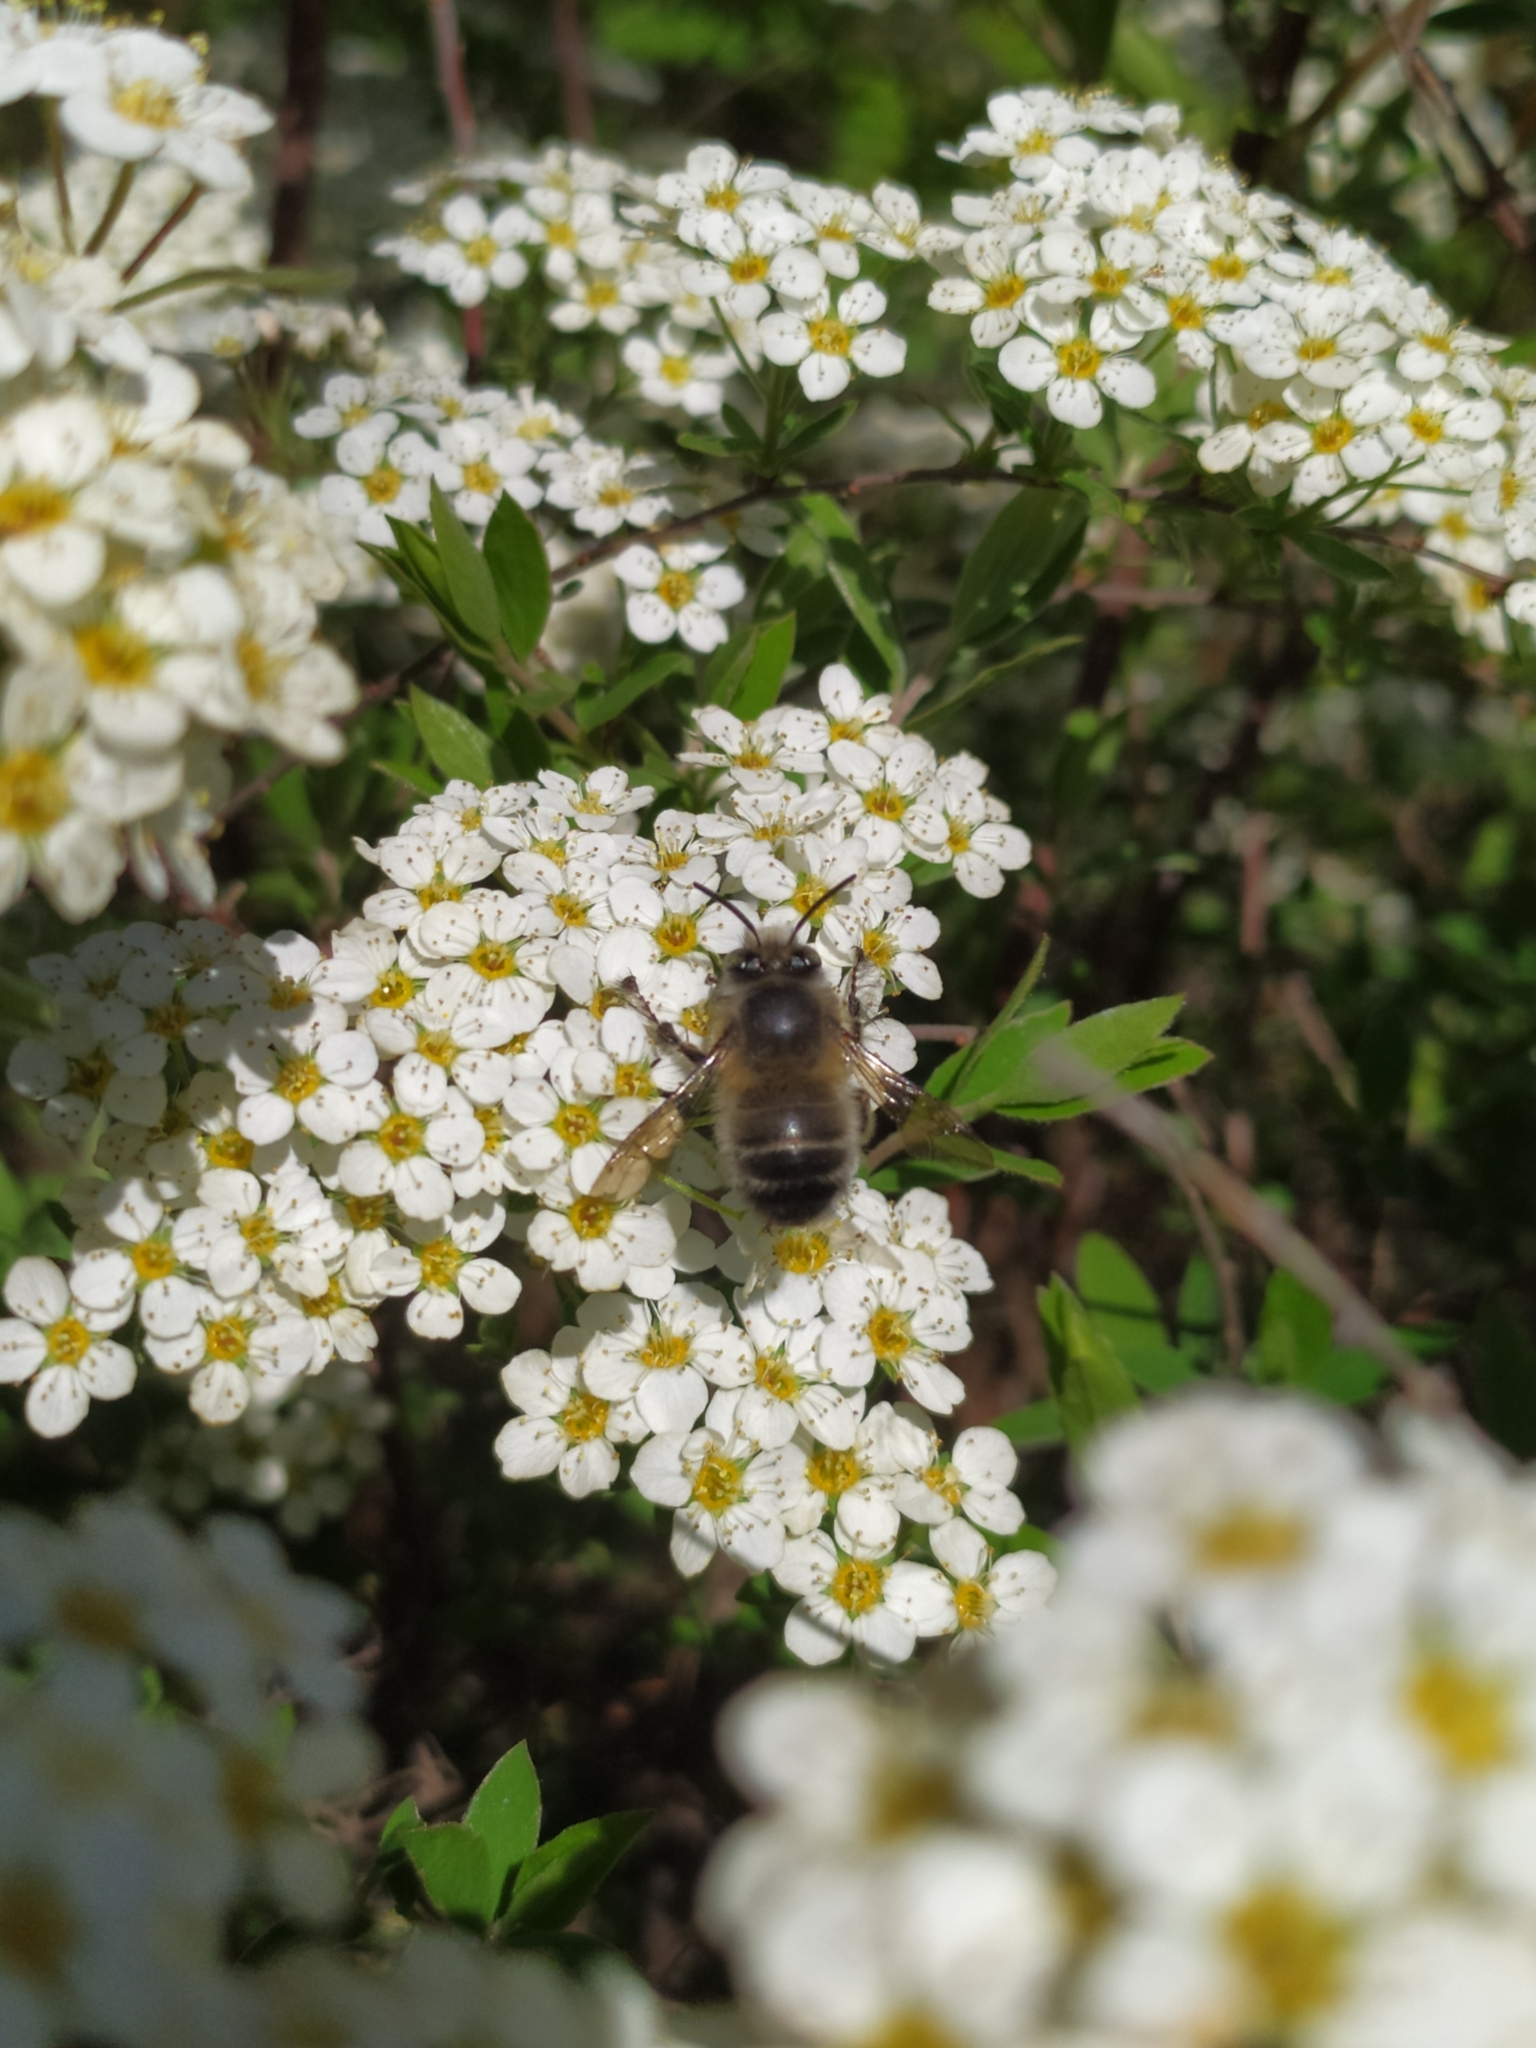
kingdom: Animalia
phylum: Arthropoda
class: Insecta
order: Hymenoptera
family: Apidae
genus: Anthophora
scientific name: Anthophora plumipes
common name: Hairy-footed flower bee
